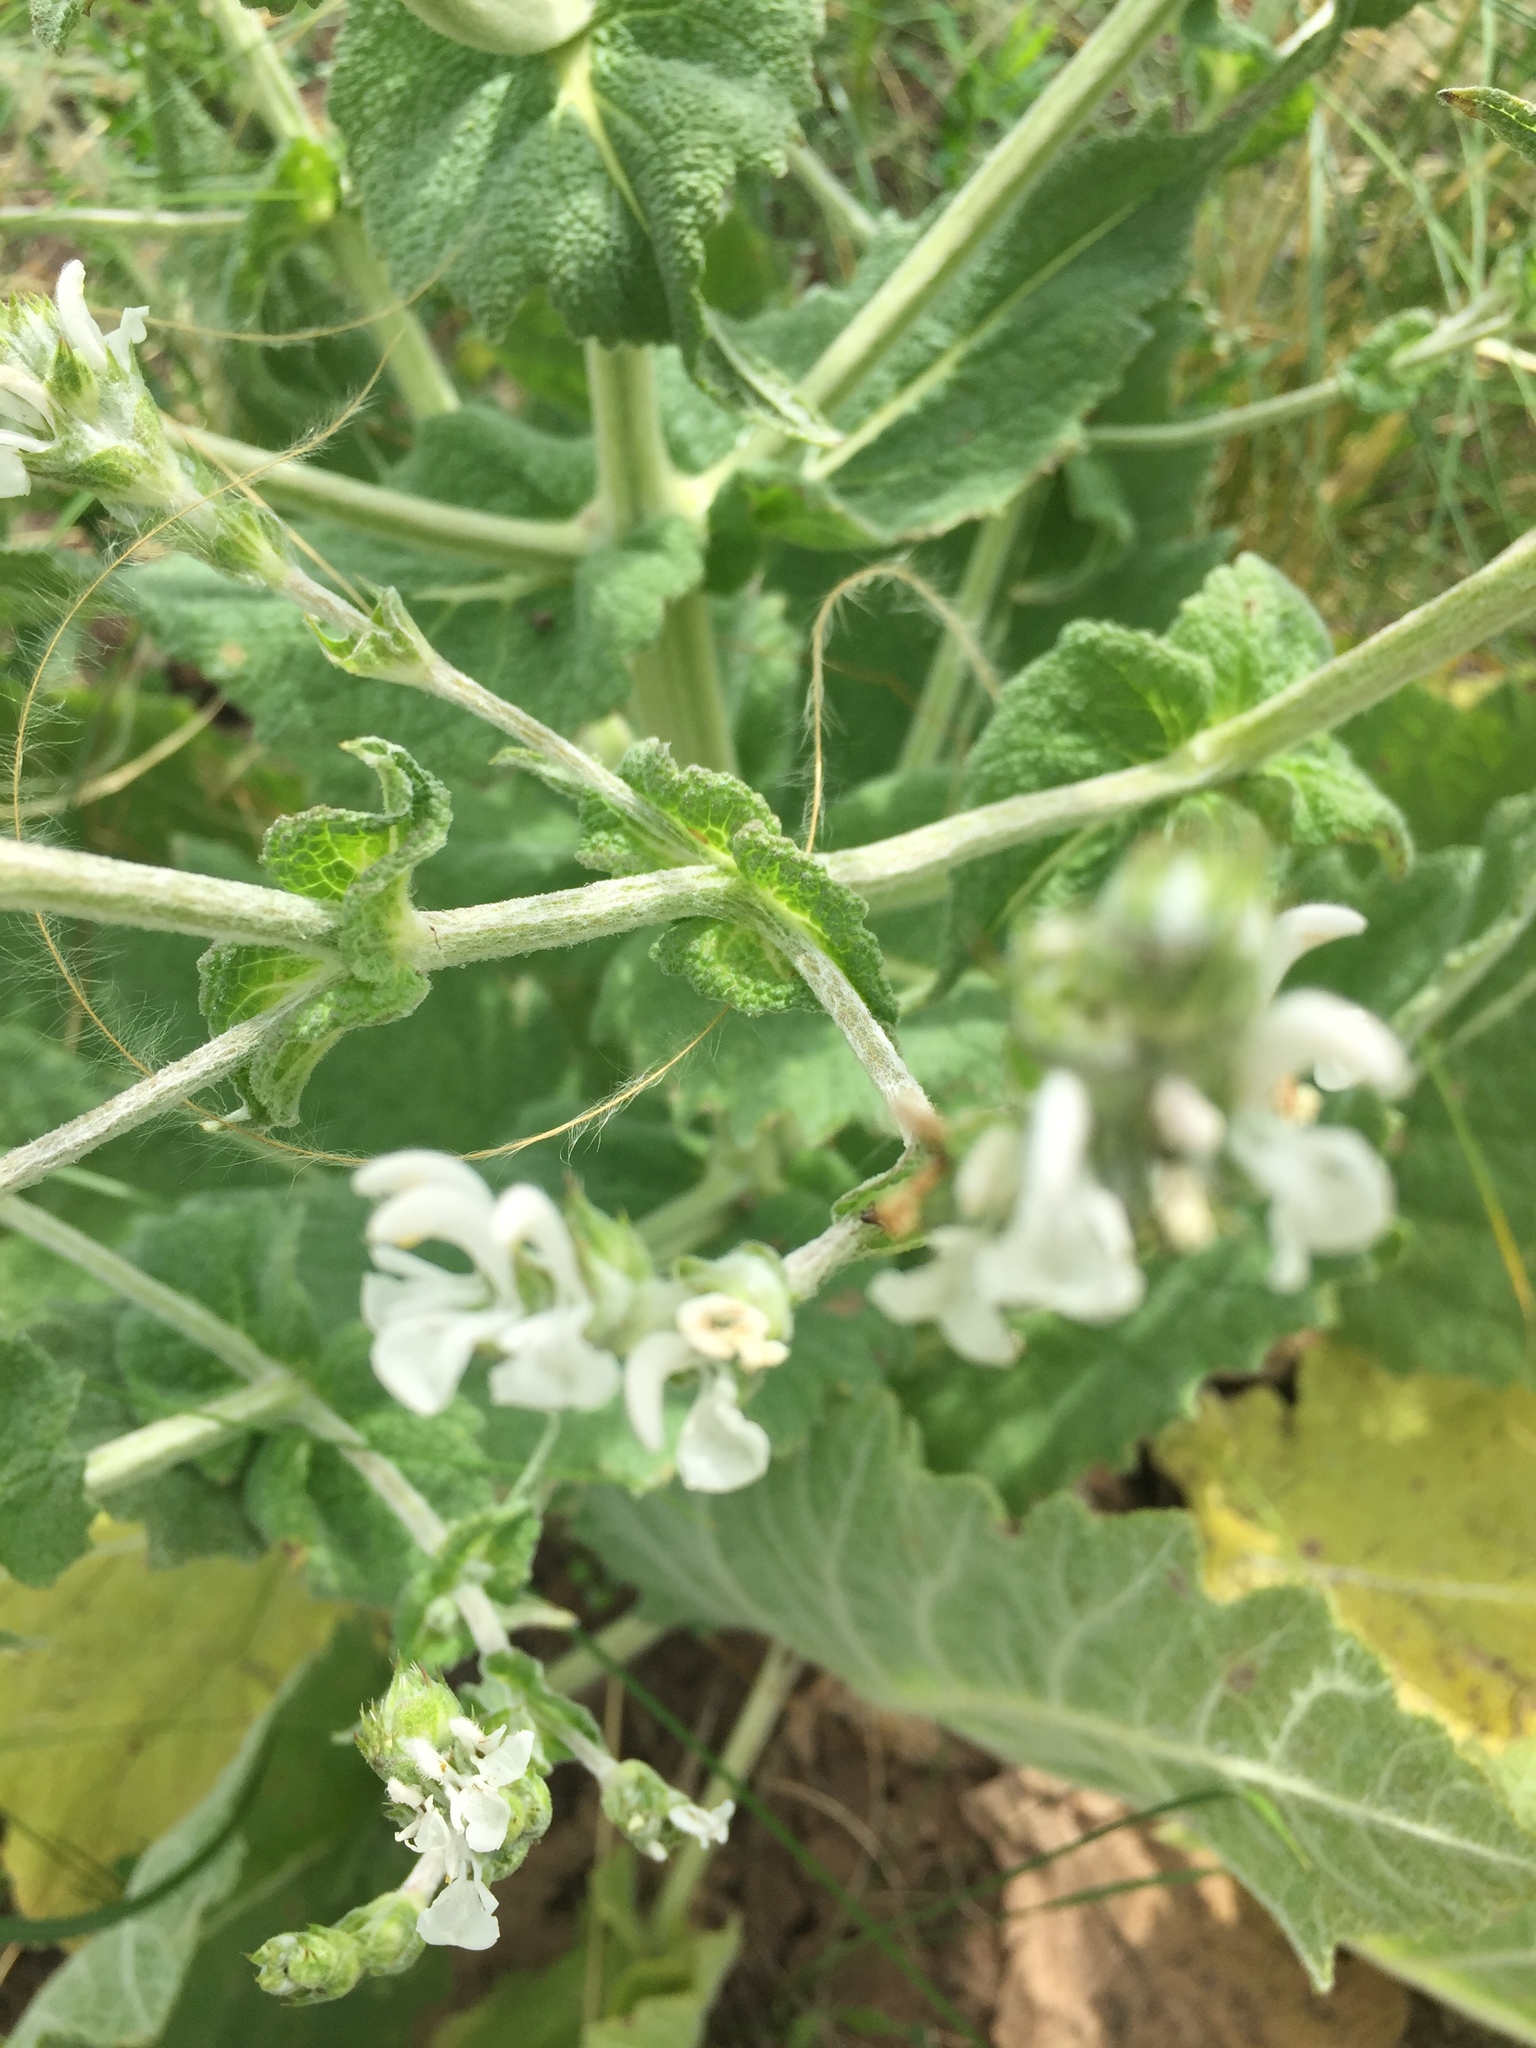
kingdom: Plantae
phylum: Tracheophyta
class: Magnoliopsida
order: Lamiales
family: Lamiaceae
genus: Salvia
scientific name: Salvia aethiopis
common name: Mediterranean sage
